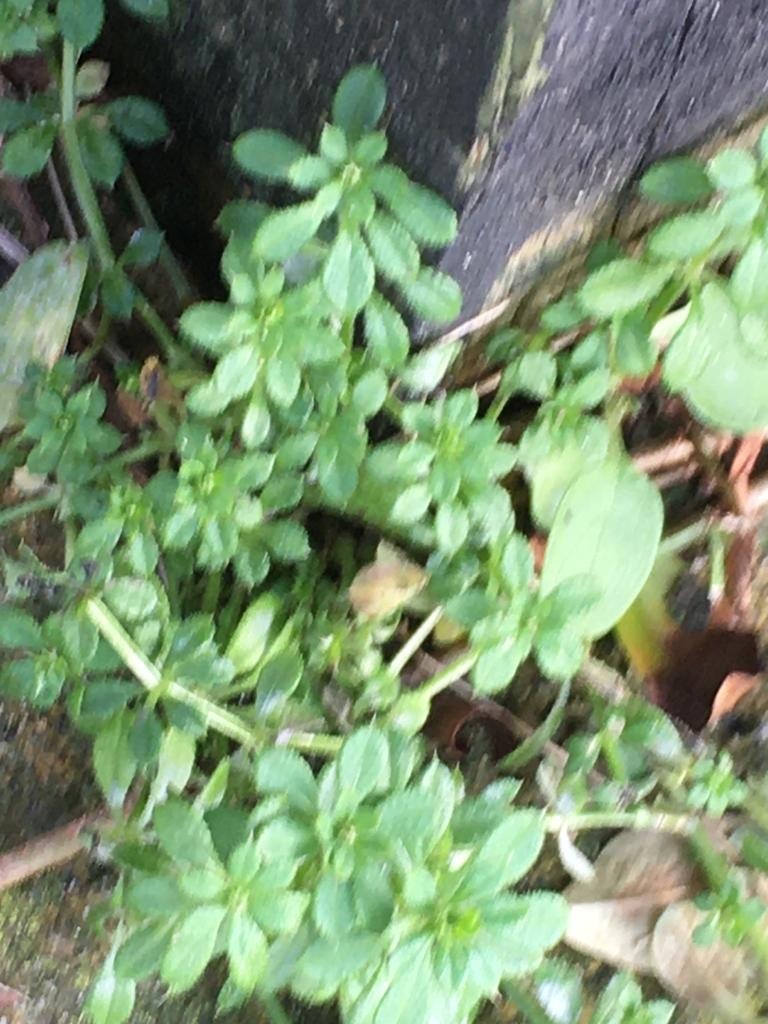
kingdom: Plantae
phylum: Tracheophyta
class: Magnoliopsida
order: Gentianales
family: Rubiaceae
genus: Galium
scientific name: Galium aparine
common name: Cleavers
